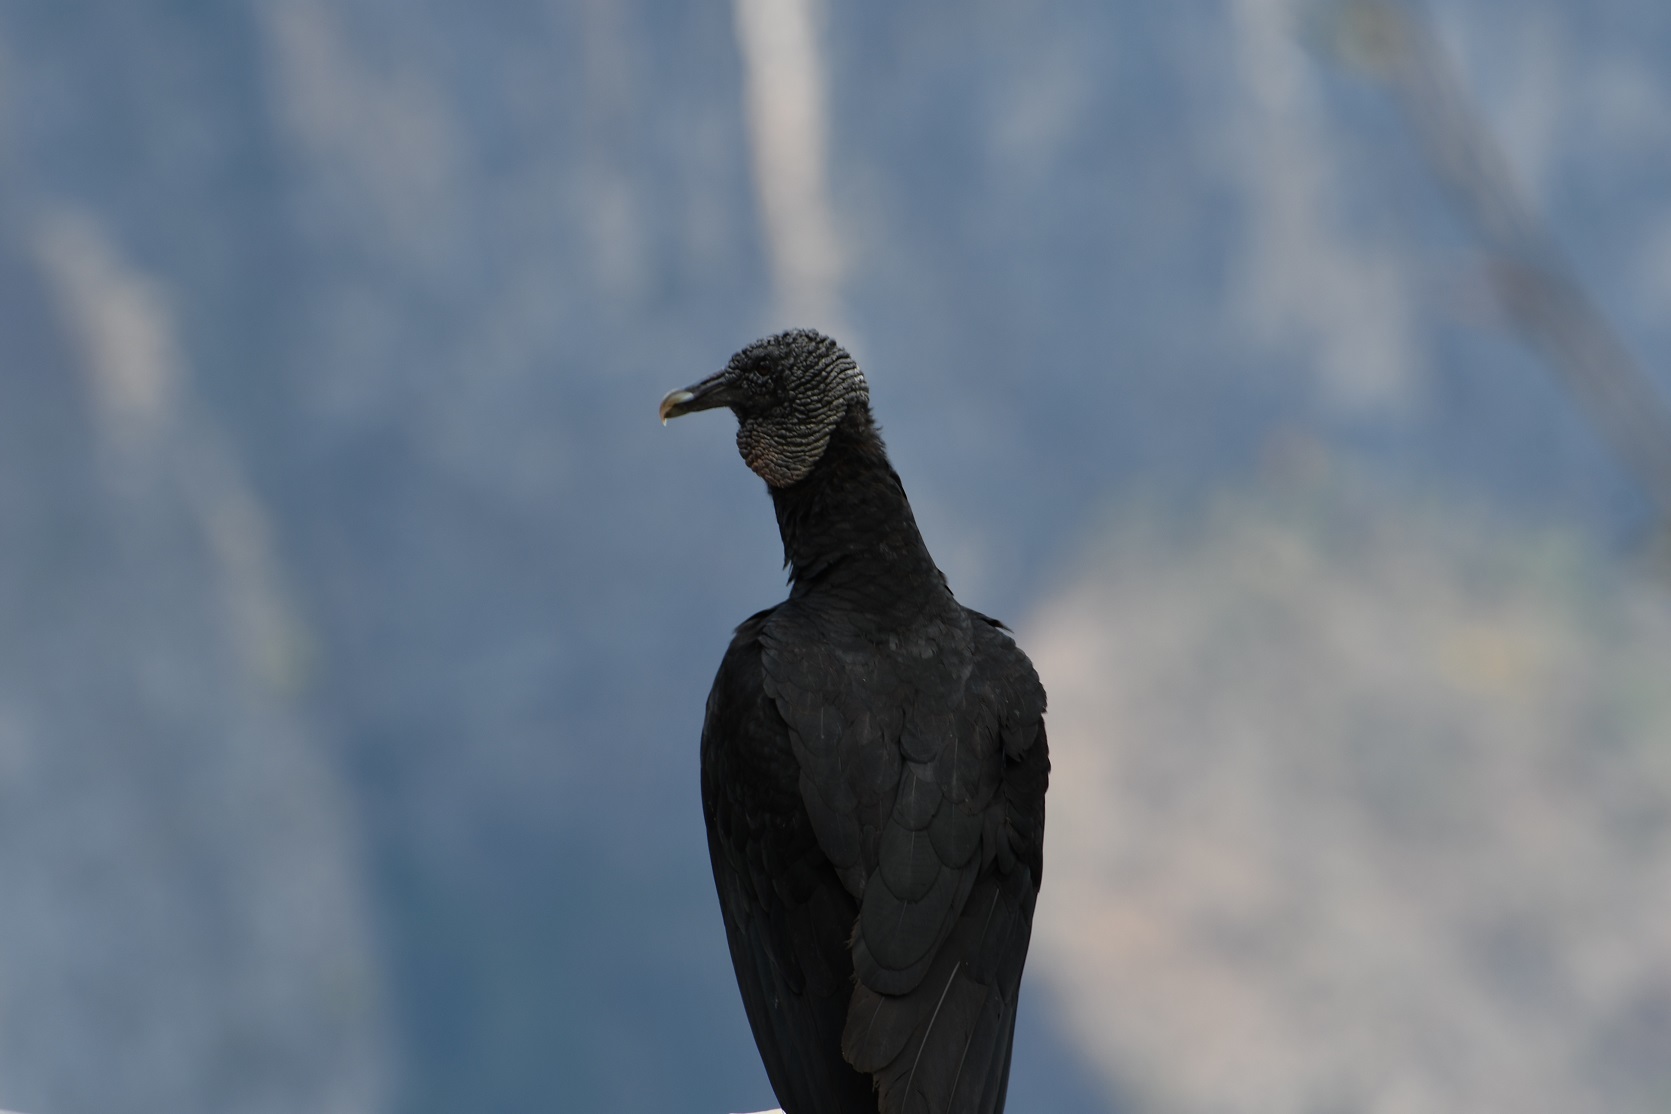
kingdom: Animalia
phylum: Chordata
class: Aves
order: Accipitriformes
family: Cathartidae
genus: Coragyps
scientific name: Coragyps atratus
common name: Black vulture
